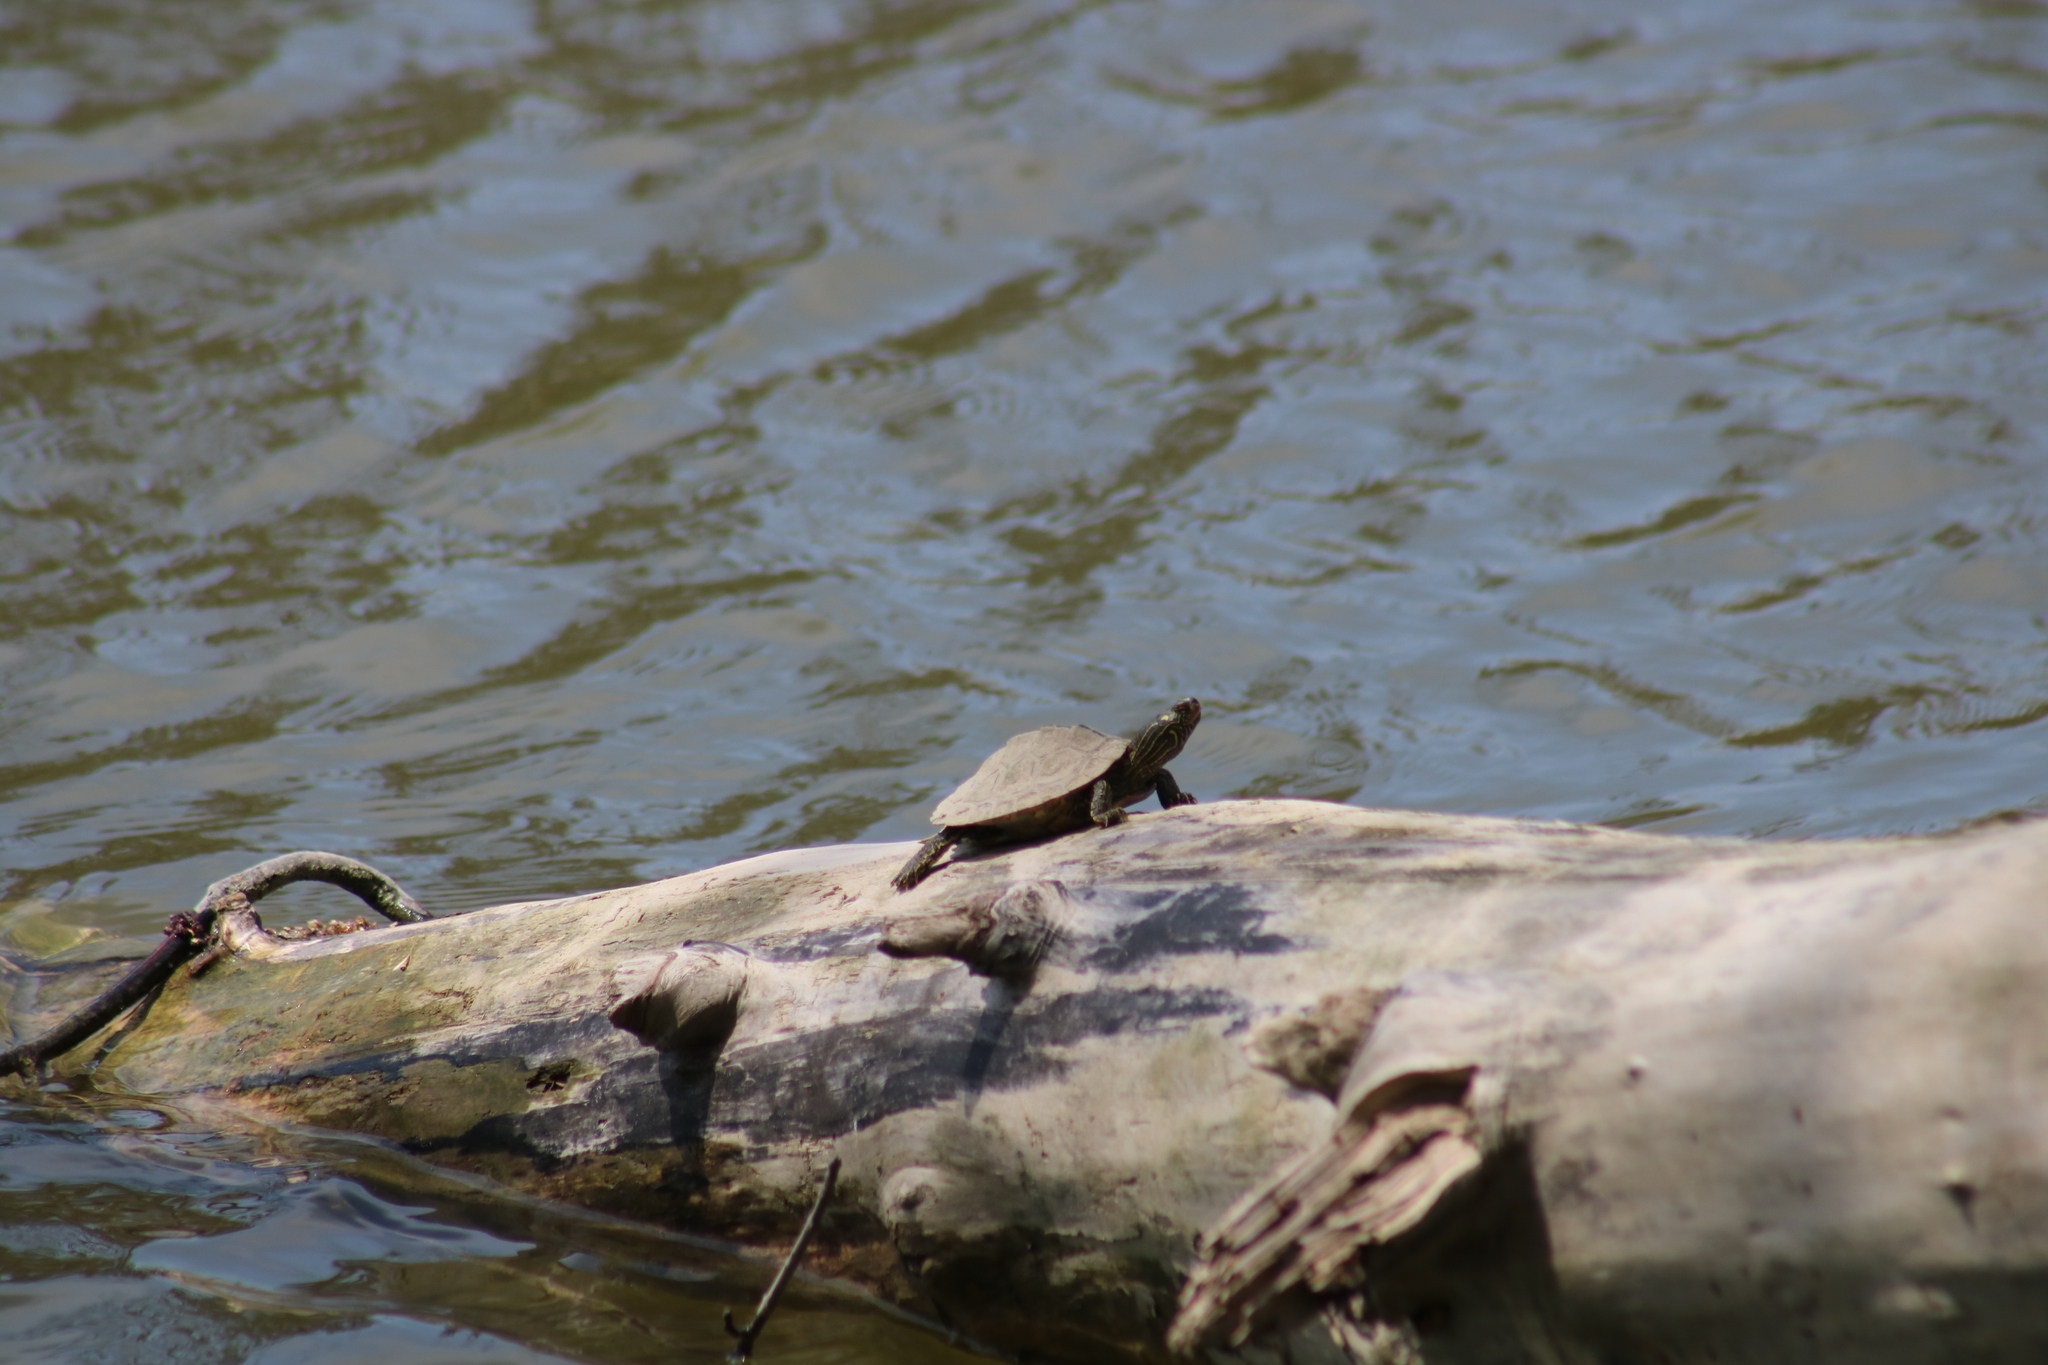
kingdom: Animalia
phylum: Chordata
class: Testudines
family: Emydidae
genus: Graptemys
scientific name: Graptemys geographica
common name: Common map turtle
